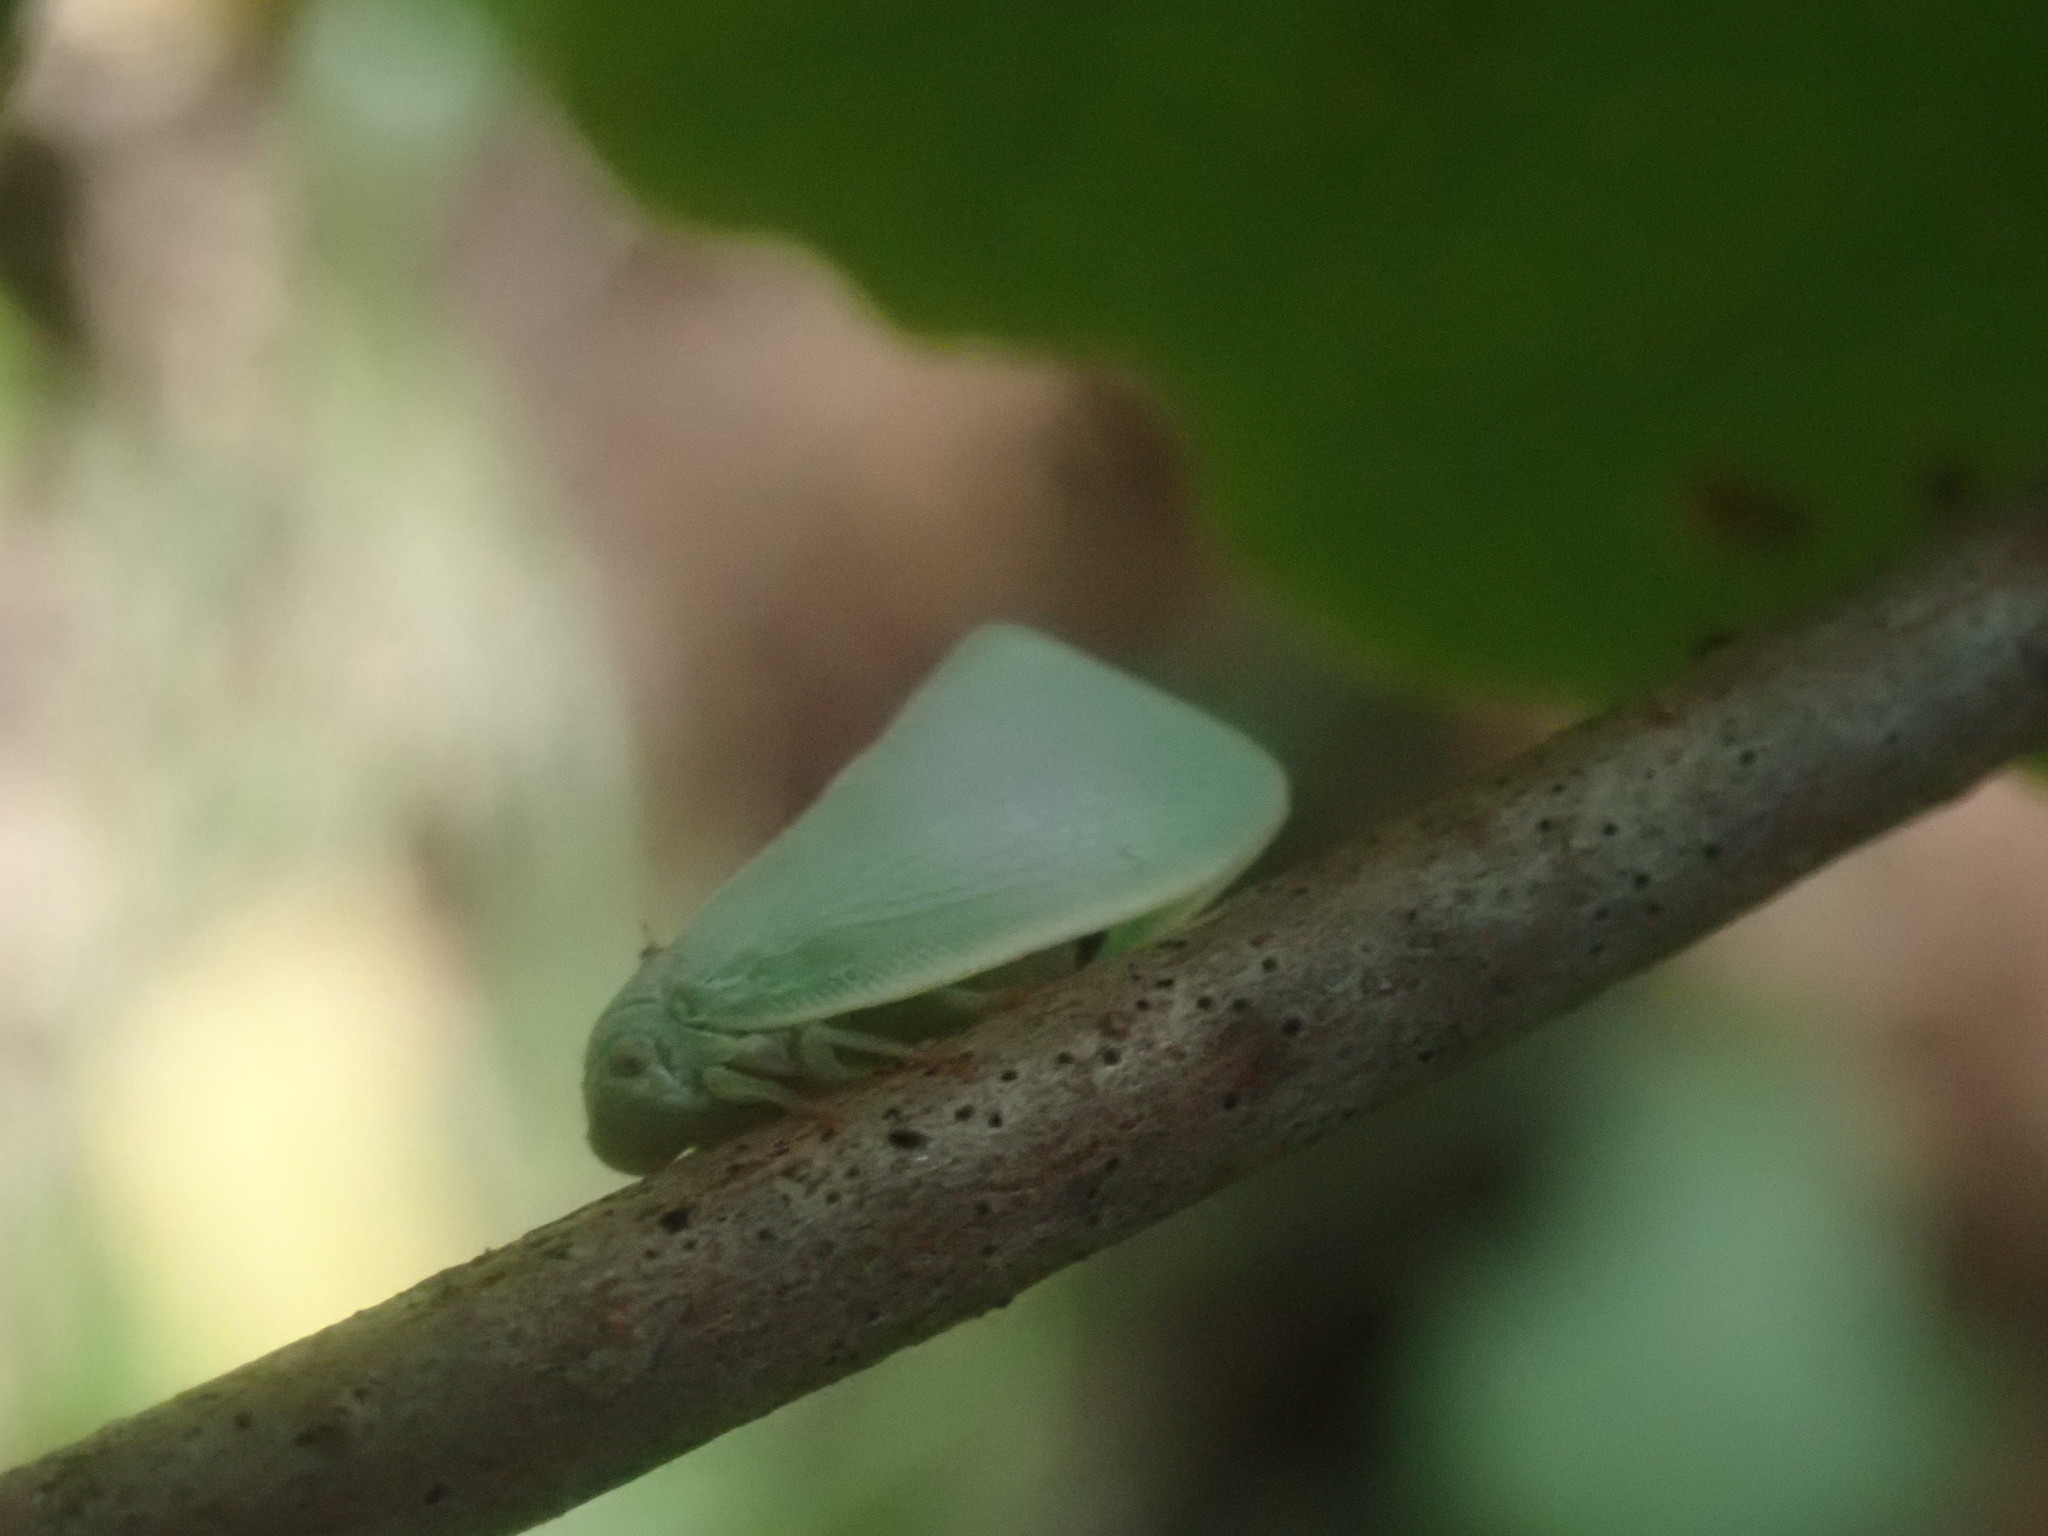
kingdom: Animalia
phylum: Arthropoda
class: Insecta
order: Hemiptera
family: Flatidae
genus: Flatormenis
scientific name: Flatormenis proxima
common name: Northern flatid planthopper
